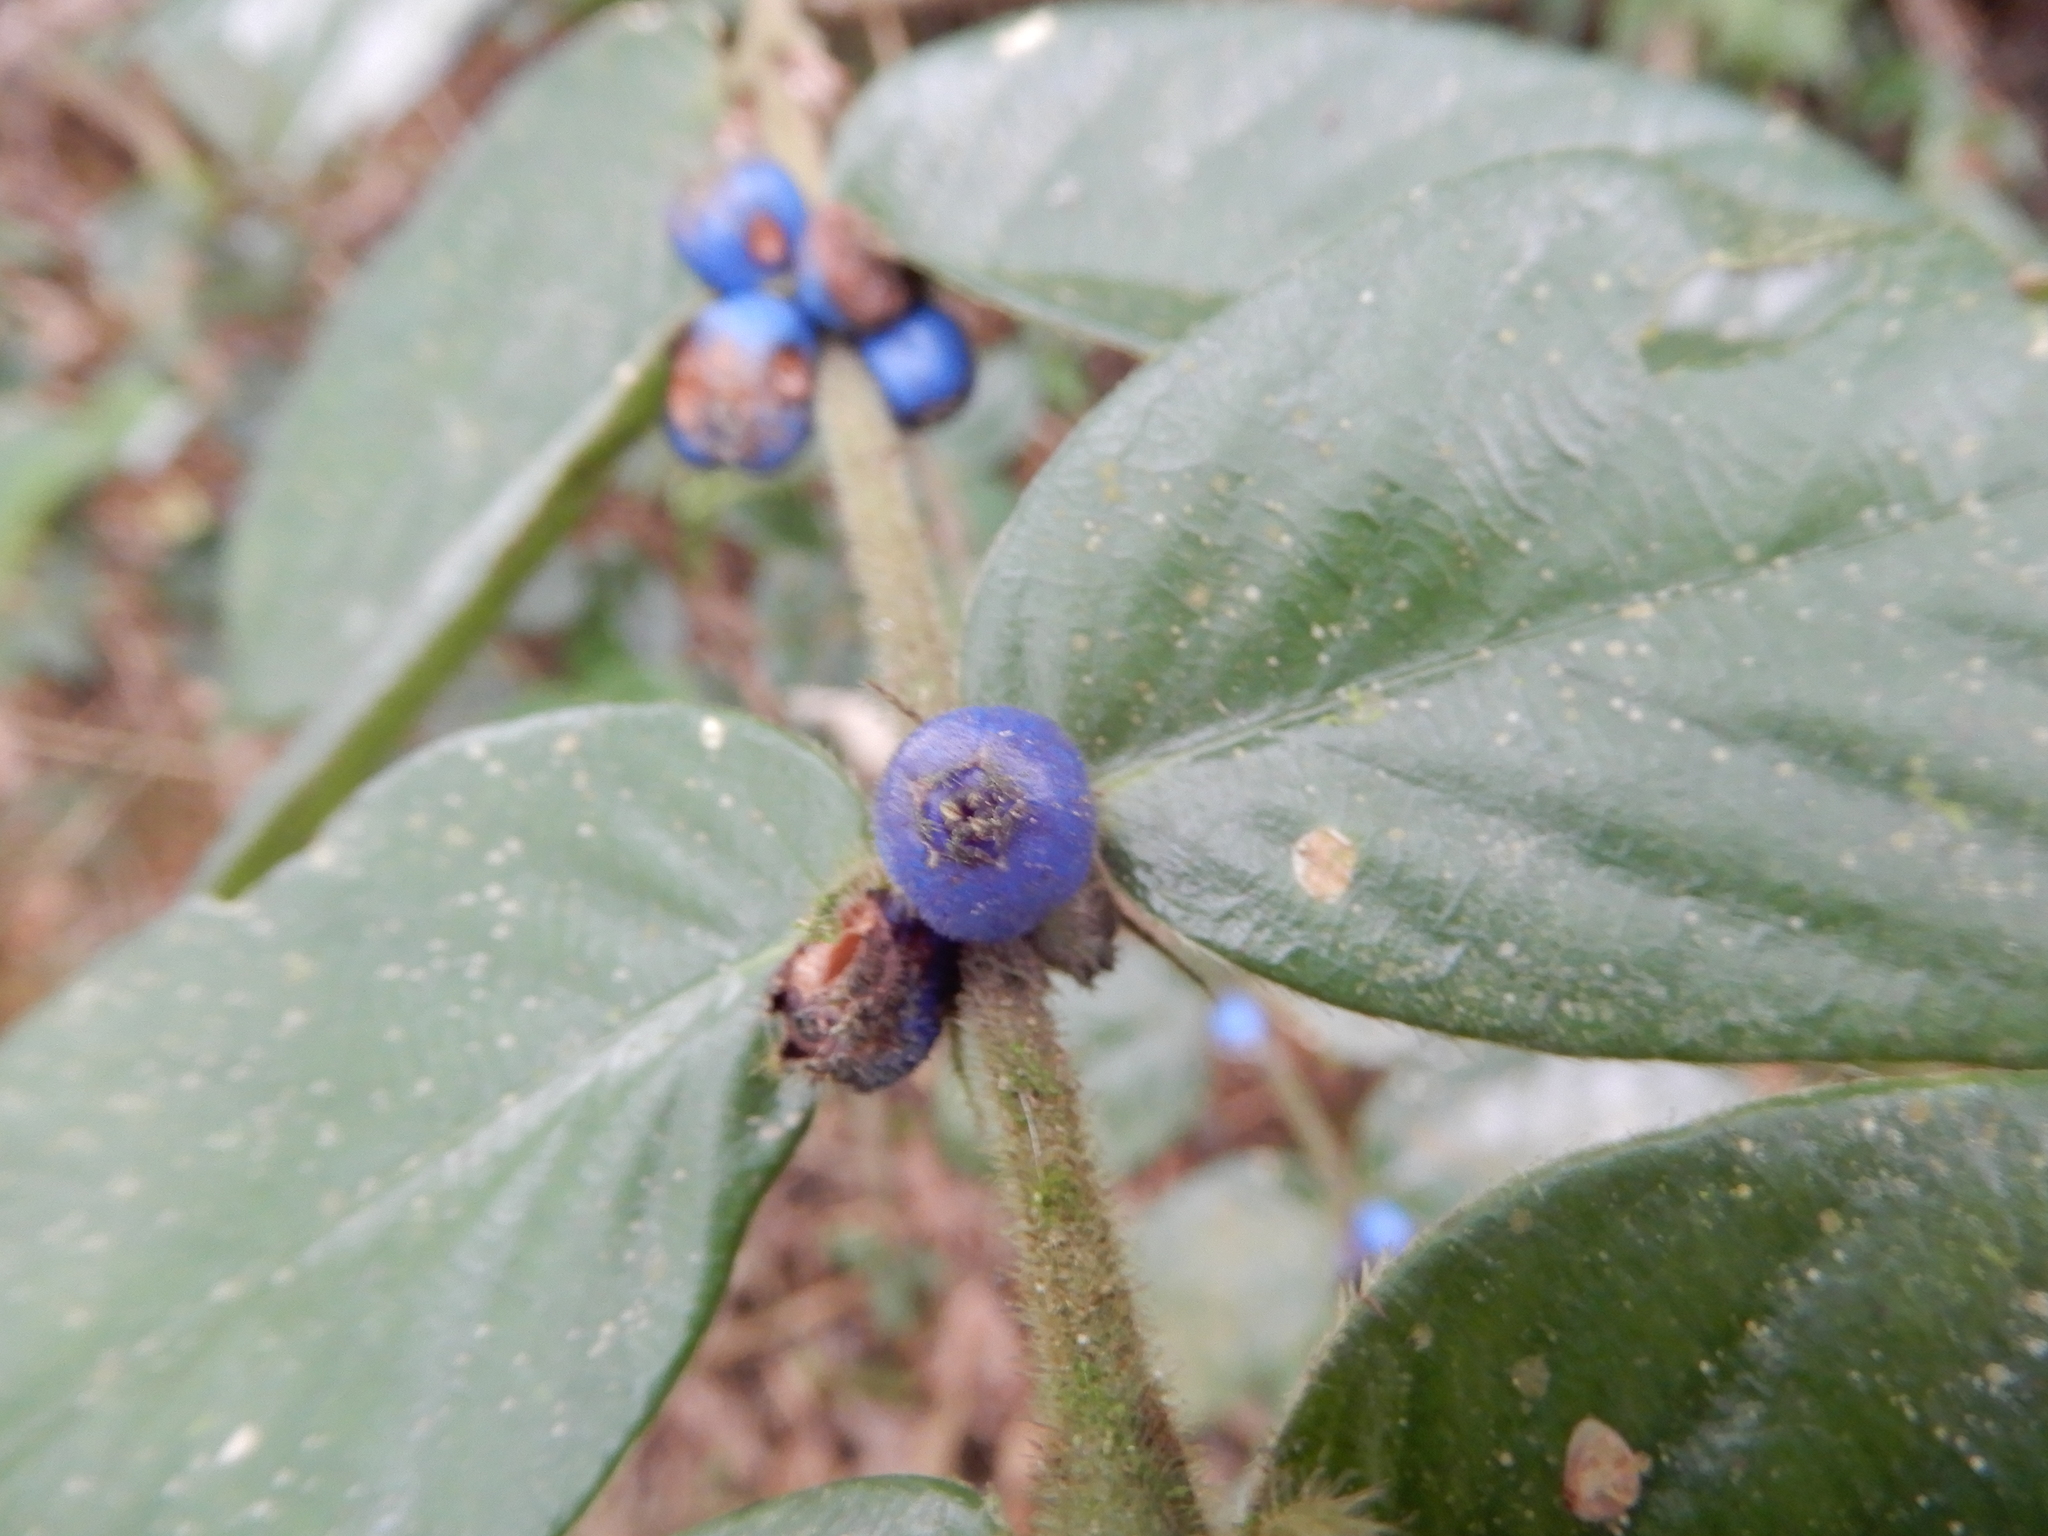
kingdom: Plantae
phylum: Tracheophyta
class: Magnoliopsida
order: Gentianales
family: Rubiaceae
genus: Lasianthus
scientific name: Lasianthus attenuatus
